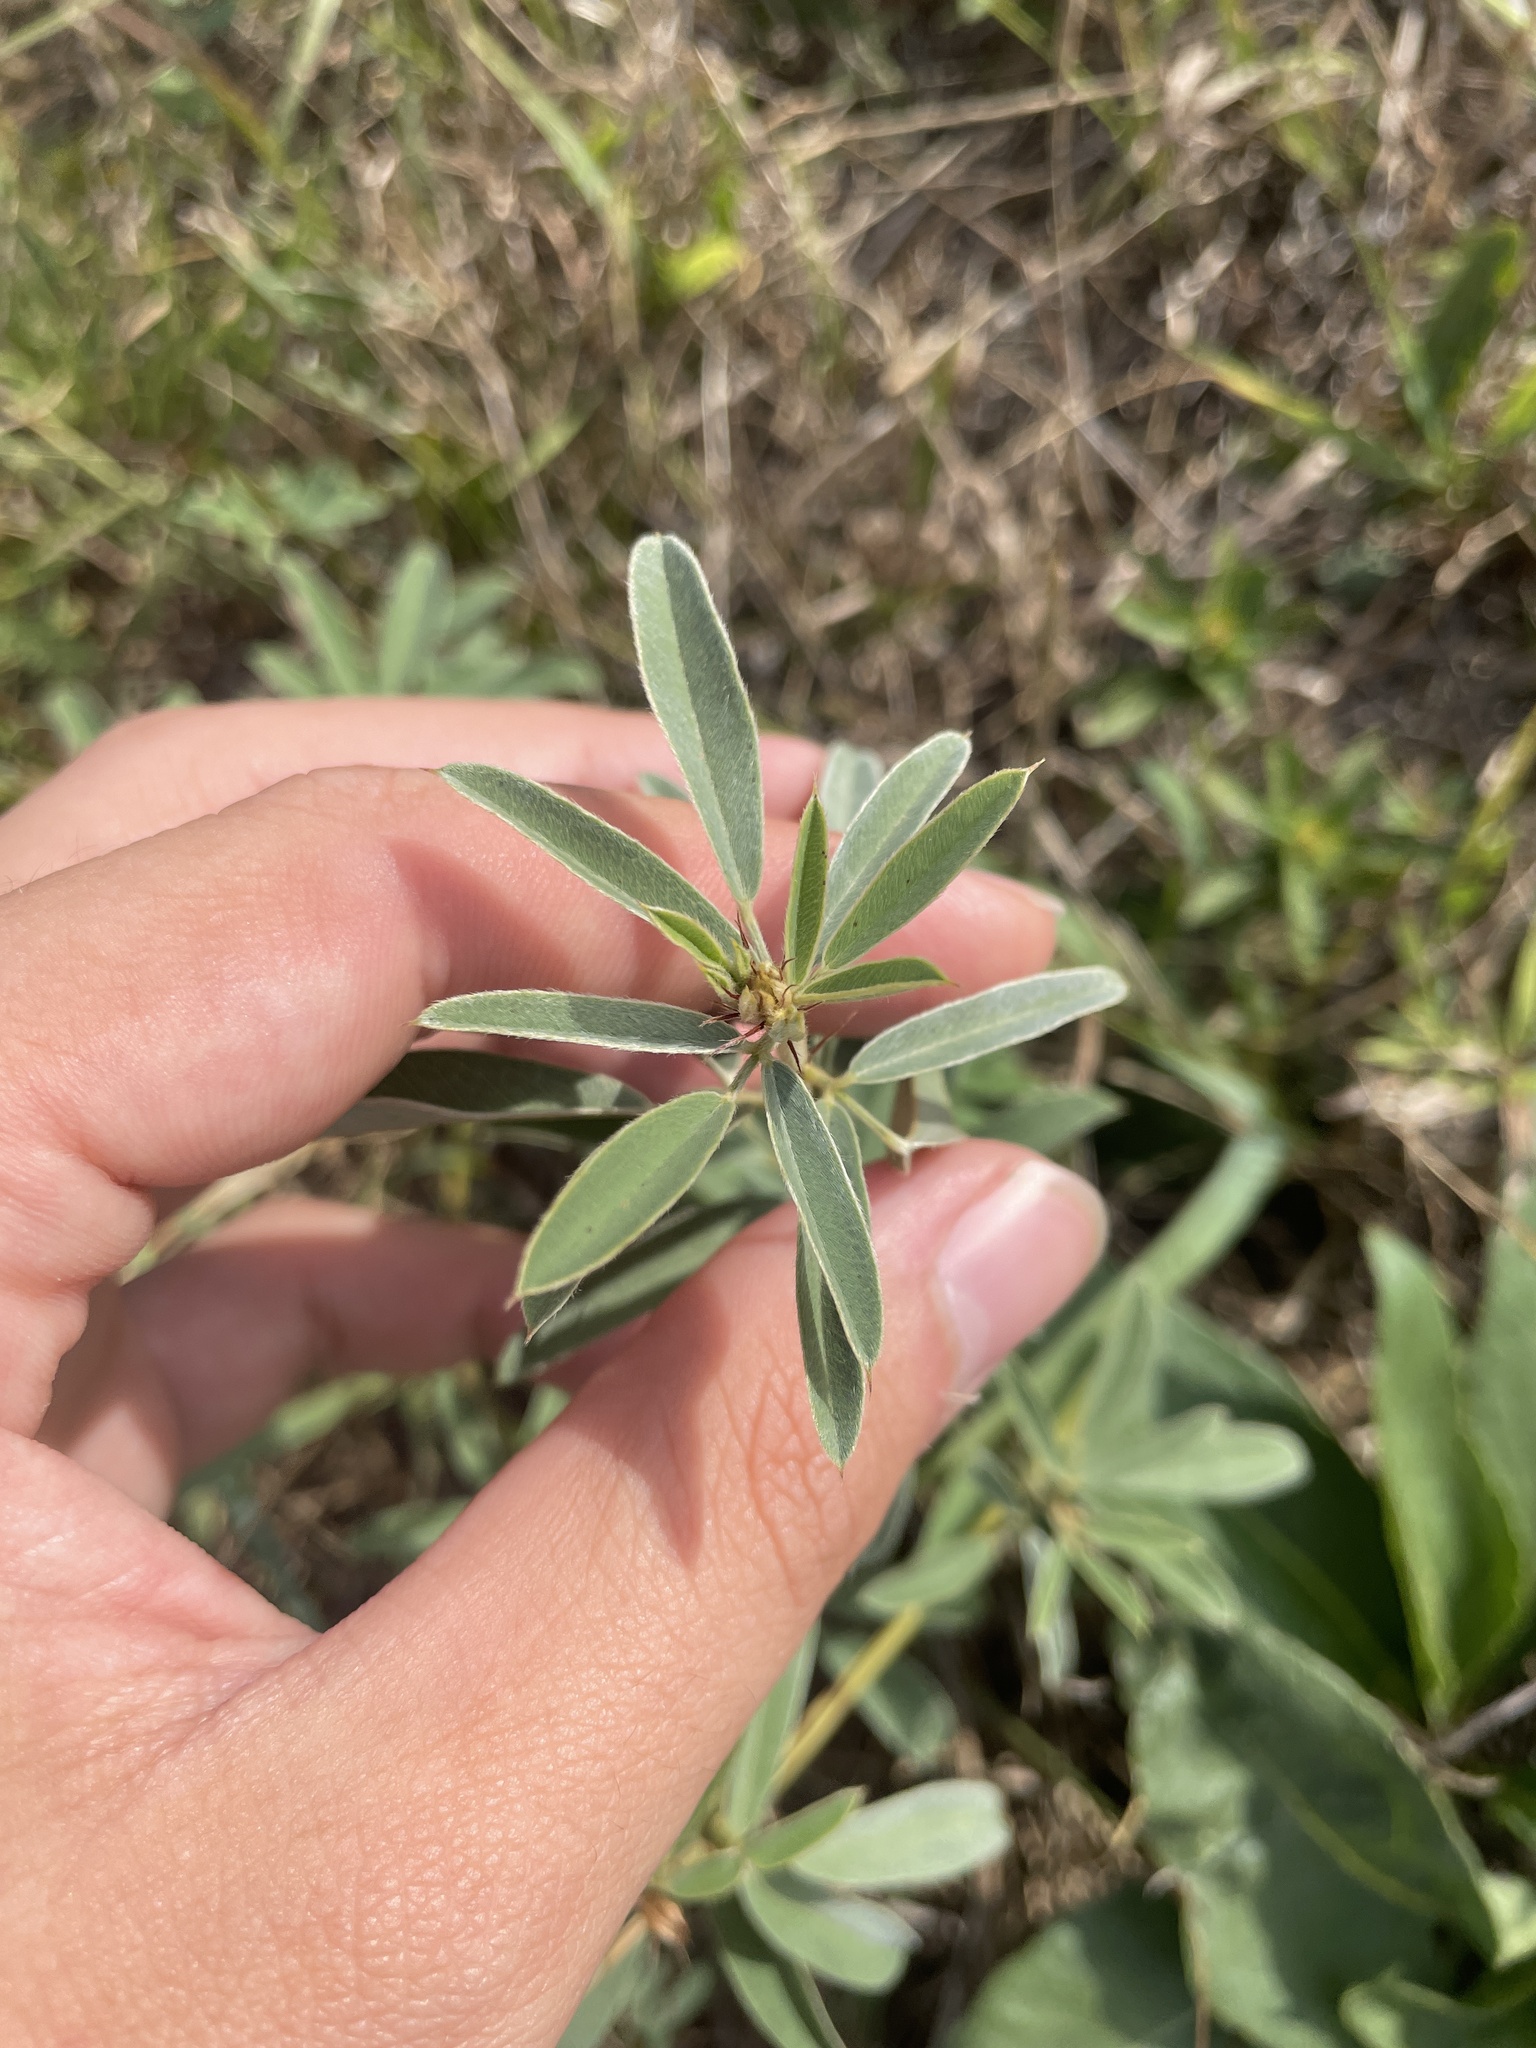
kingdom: Plantae
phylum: Tracheophyta
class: Magnoliopsida
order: Fabales
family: Fabaceae
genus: Lespedeza
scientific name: Lespedeza capitata
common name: Dusty clover
